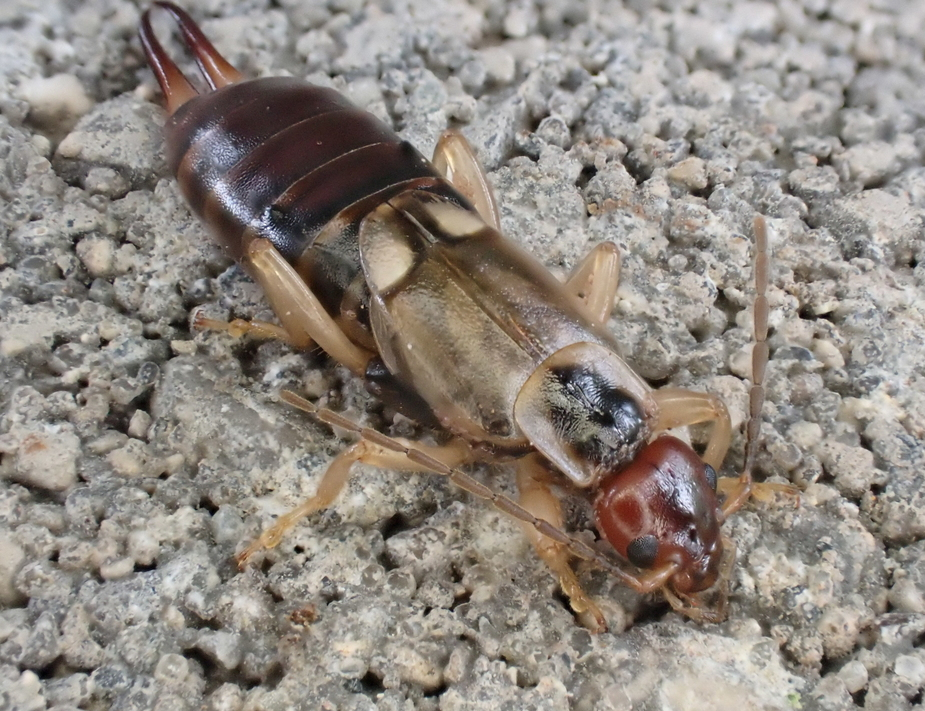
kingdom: Animalia
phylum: Arthropoda
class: Insecta
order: Dermaptera
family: Forficulidae
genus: Forficula
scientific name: Forficula
